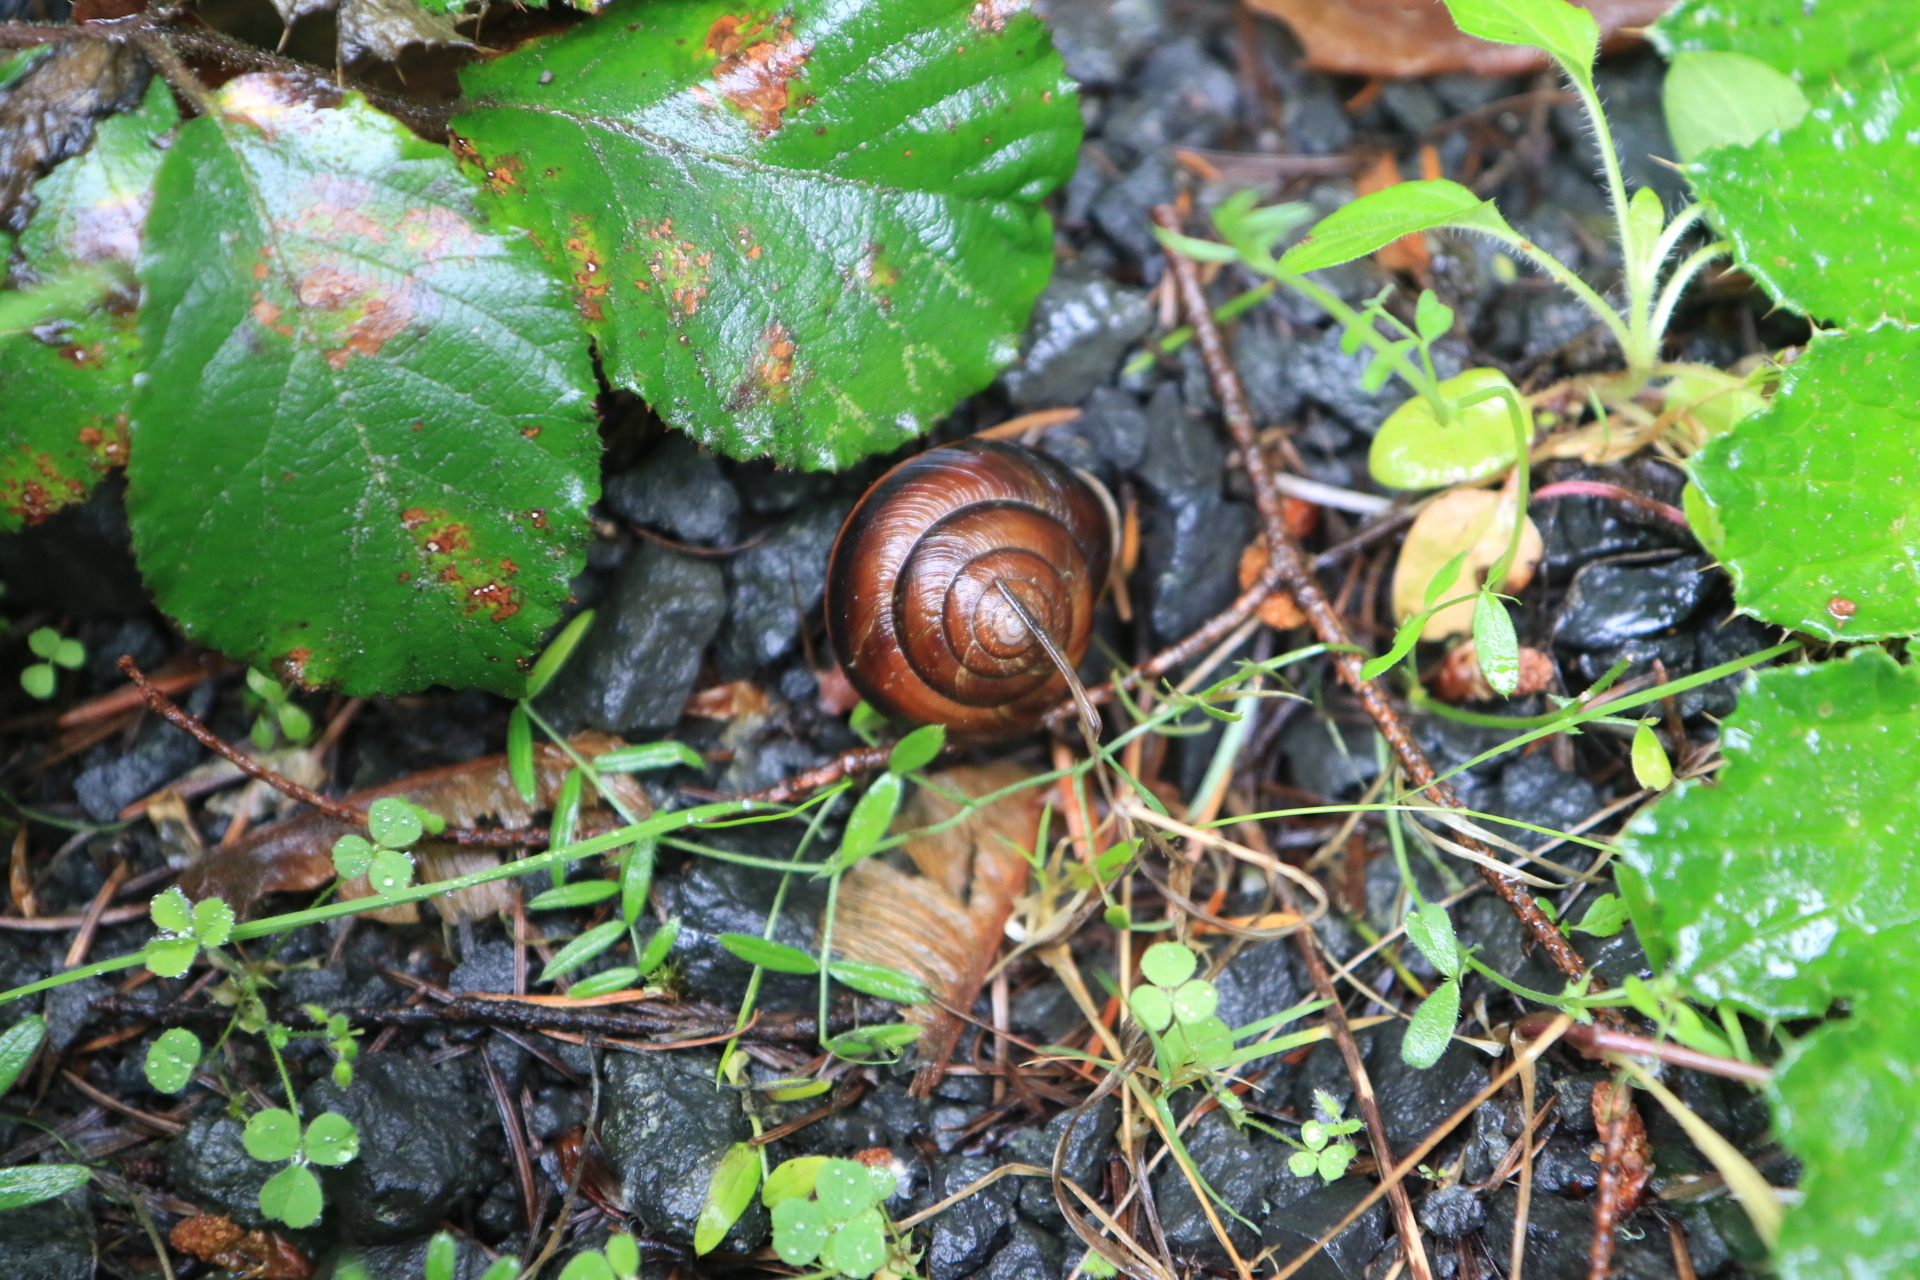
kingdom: Animalia
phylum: Mollusca
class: Gastropoda
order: Stylommatophora
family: Xanthonychidae
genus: Monadenia
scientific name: Monadenia fidelis
